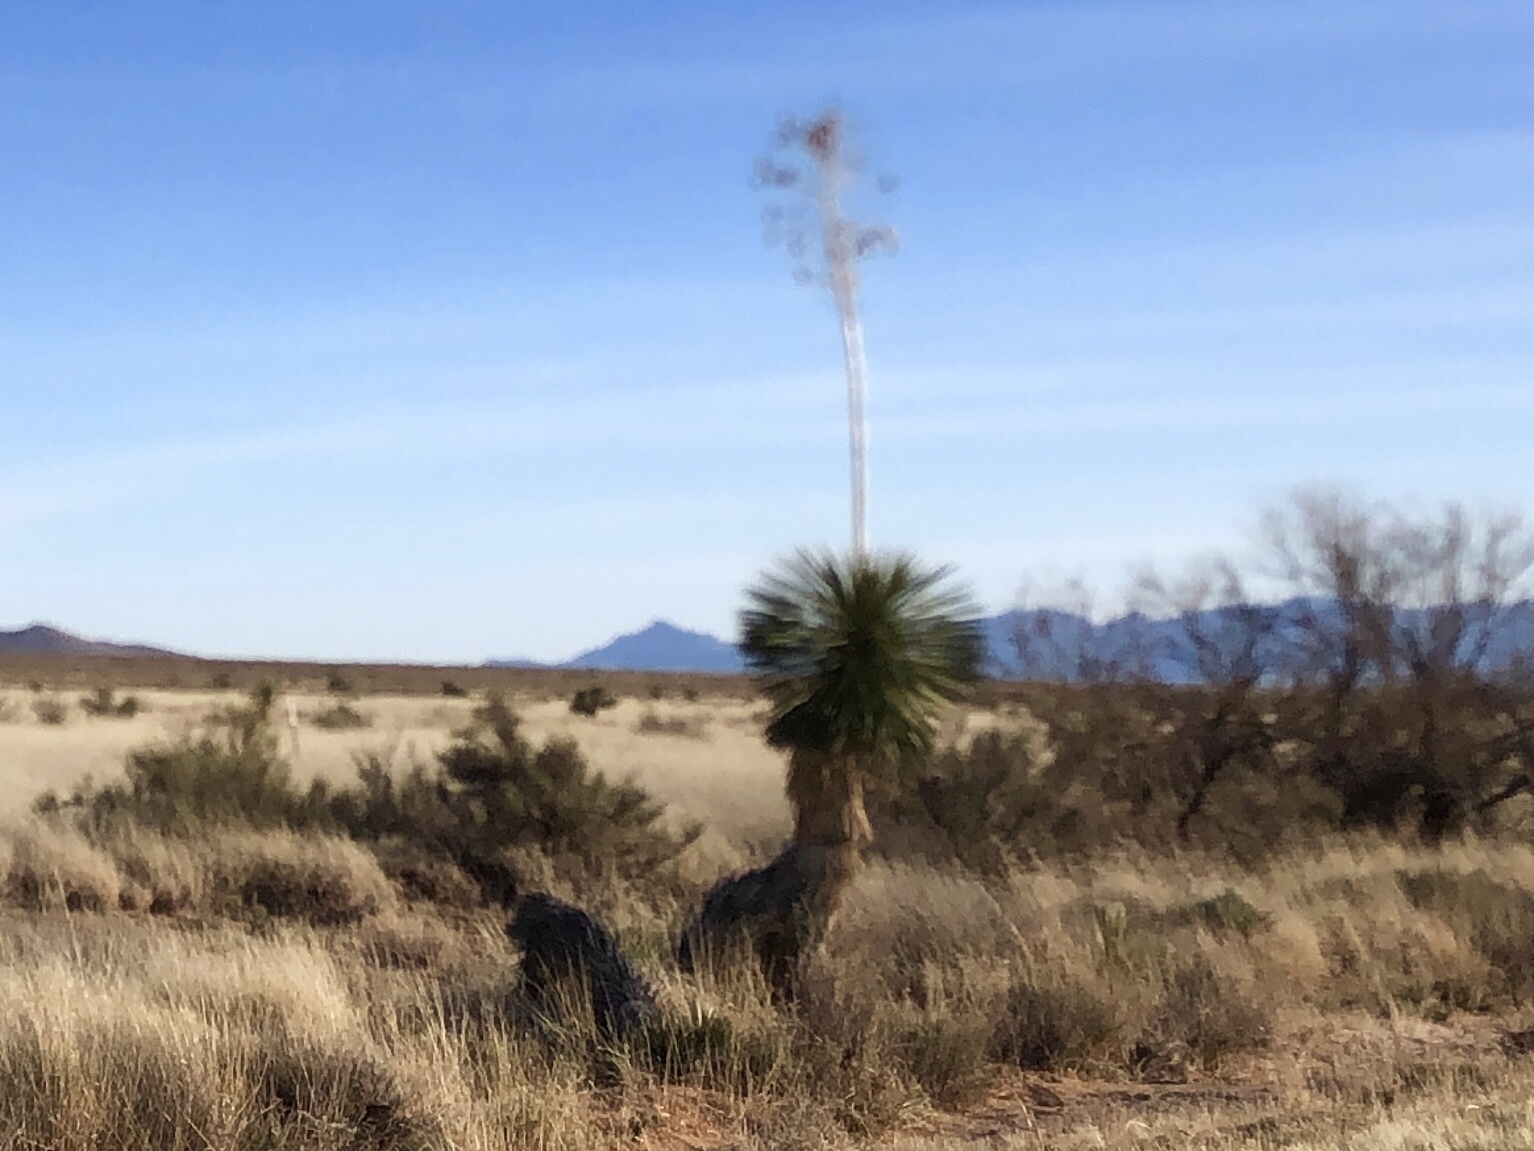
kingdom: Plantae
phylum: Tracheophyta
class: Liliopsida
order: Asparagales
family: Asparagaceae
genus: Yucca
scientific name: Yucca elata
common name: Palmella
